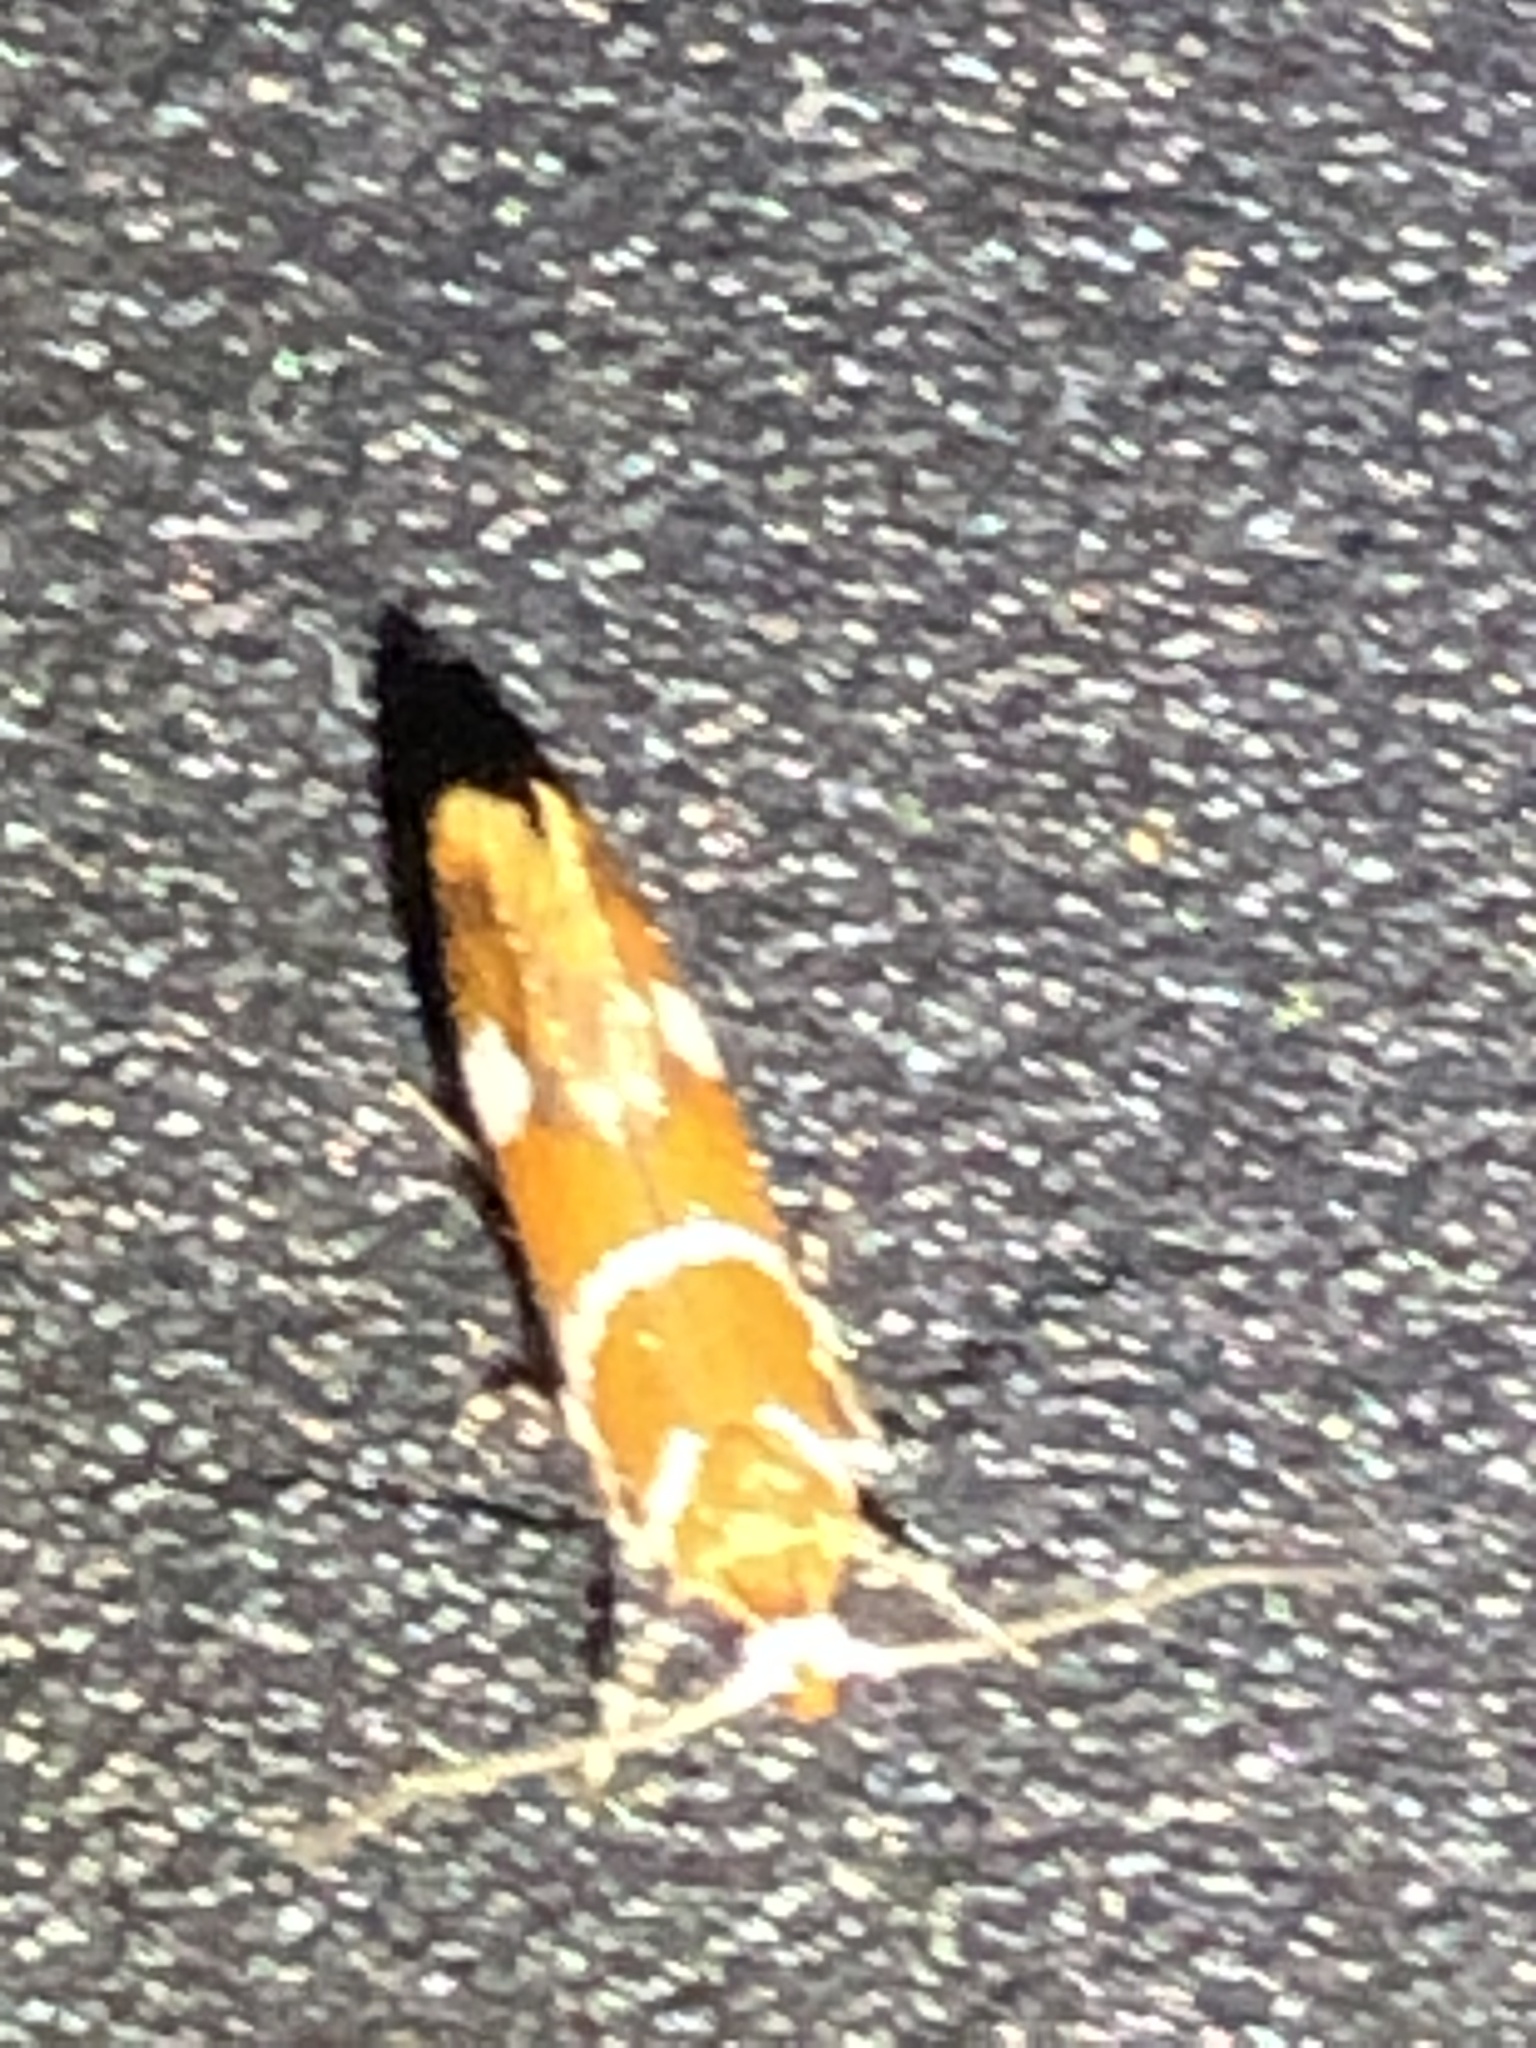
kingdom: Animalia
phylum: Arthropoda
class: Insecta
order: Lepidoptera
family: Oecophoridae
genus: Promalactis
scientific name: Promalactis suzukiella
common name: Moth
